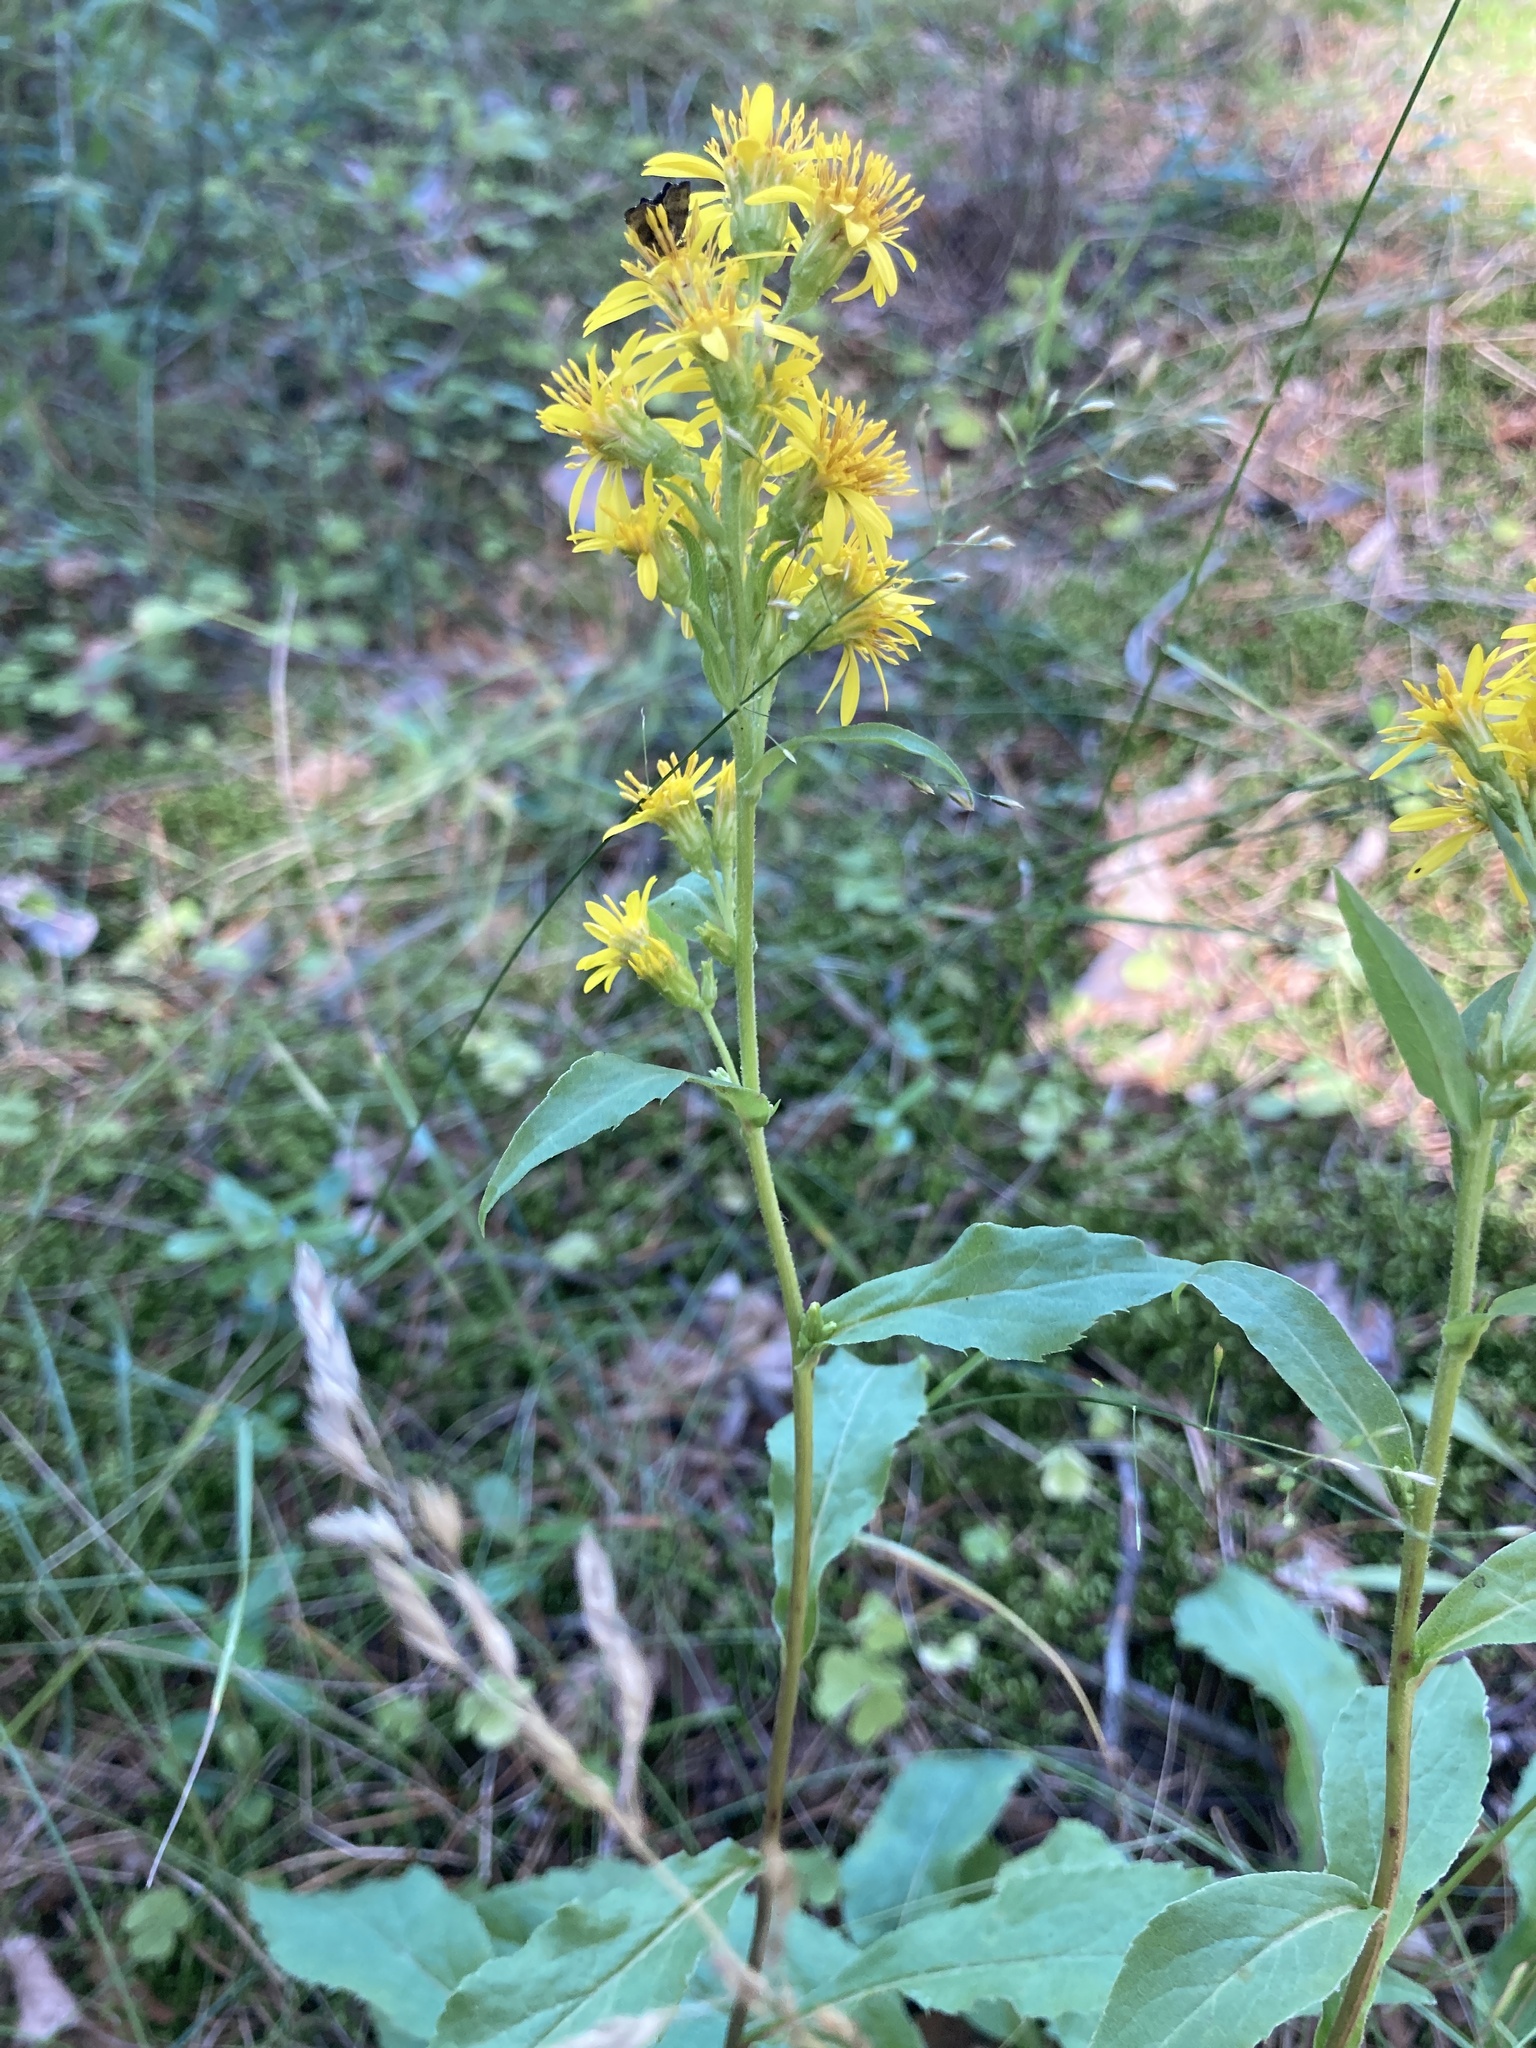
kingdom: Plantae
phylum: Tracheophyta
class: Magnoliopsida
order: Asterales
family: Asteraceae
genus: Solidago
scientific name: Solidago virgaurea
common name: Goldenrod
